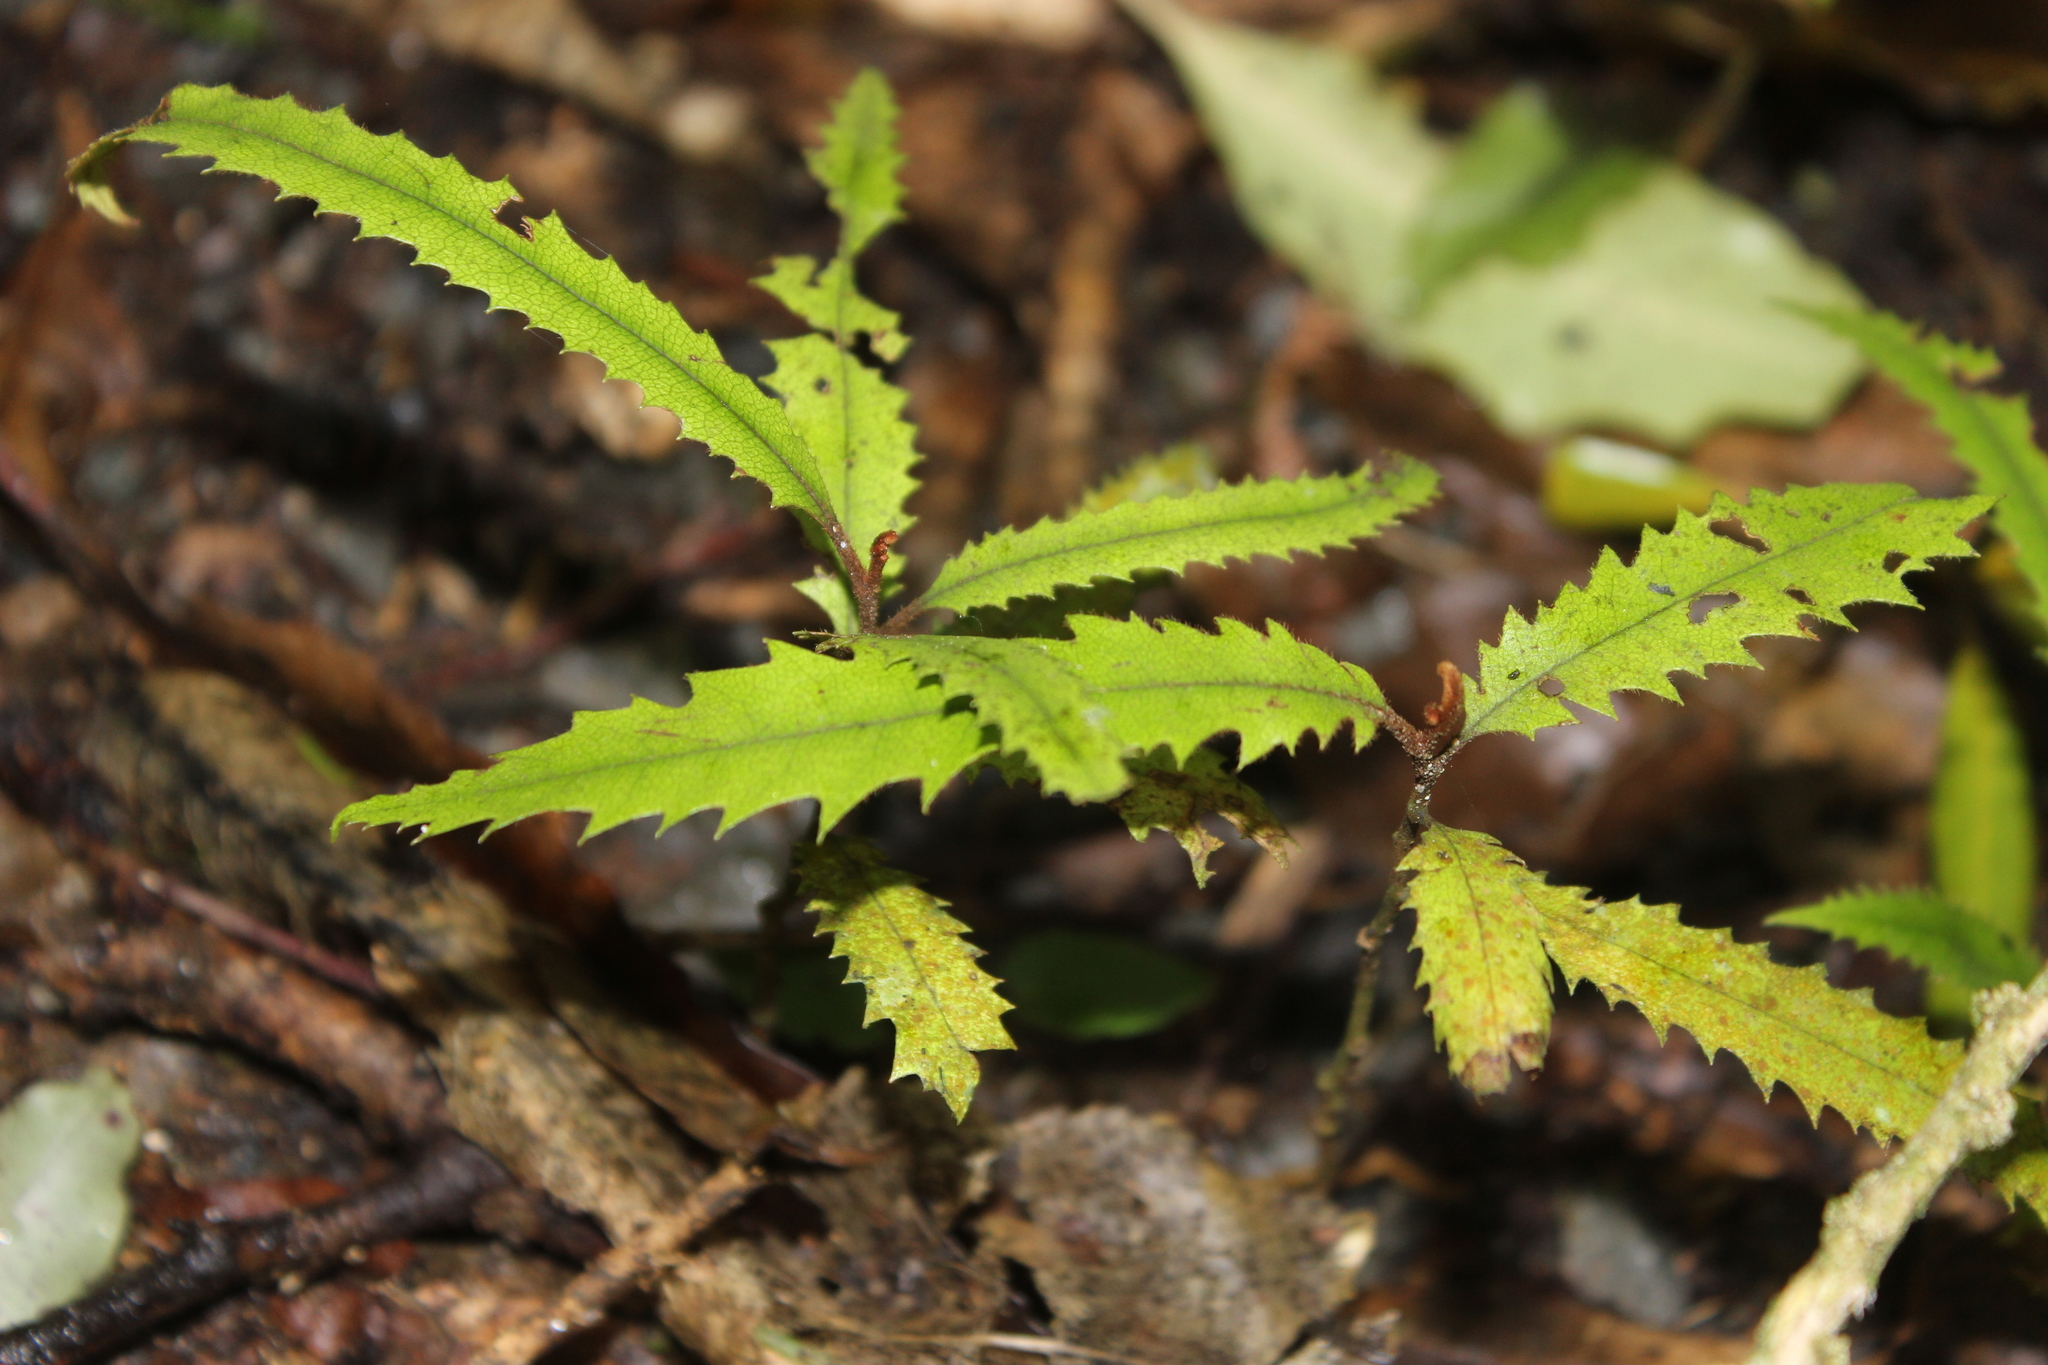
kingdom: Plantae
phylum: Tracheophyta
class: Magnoliopsida
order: Proteales
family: Proteaceae
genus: Knightia
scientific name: Knightia excelsa
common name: New zealand-honeysuckle
